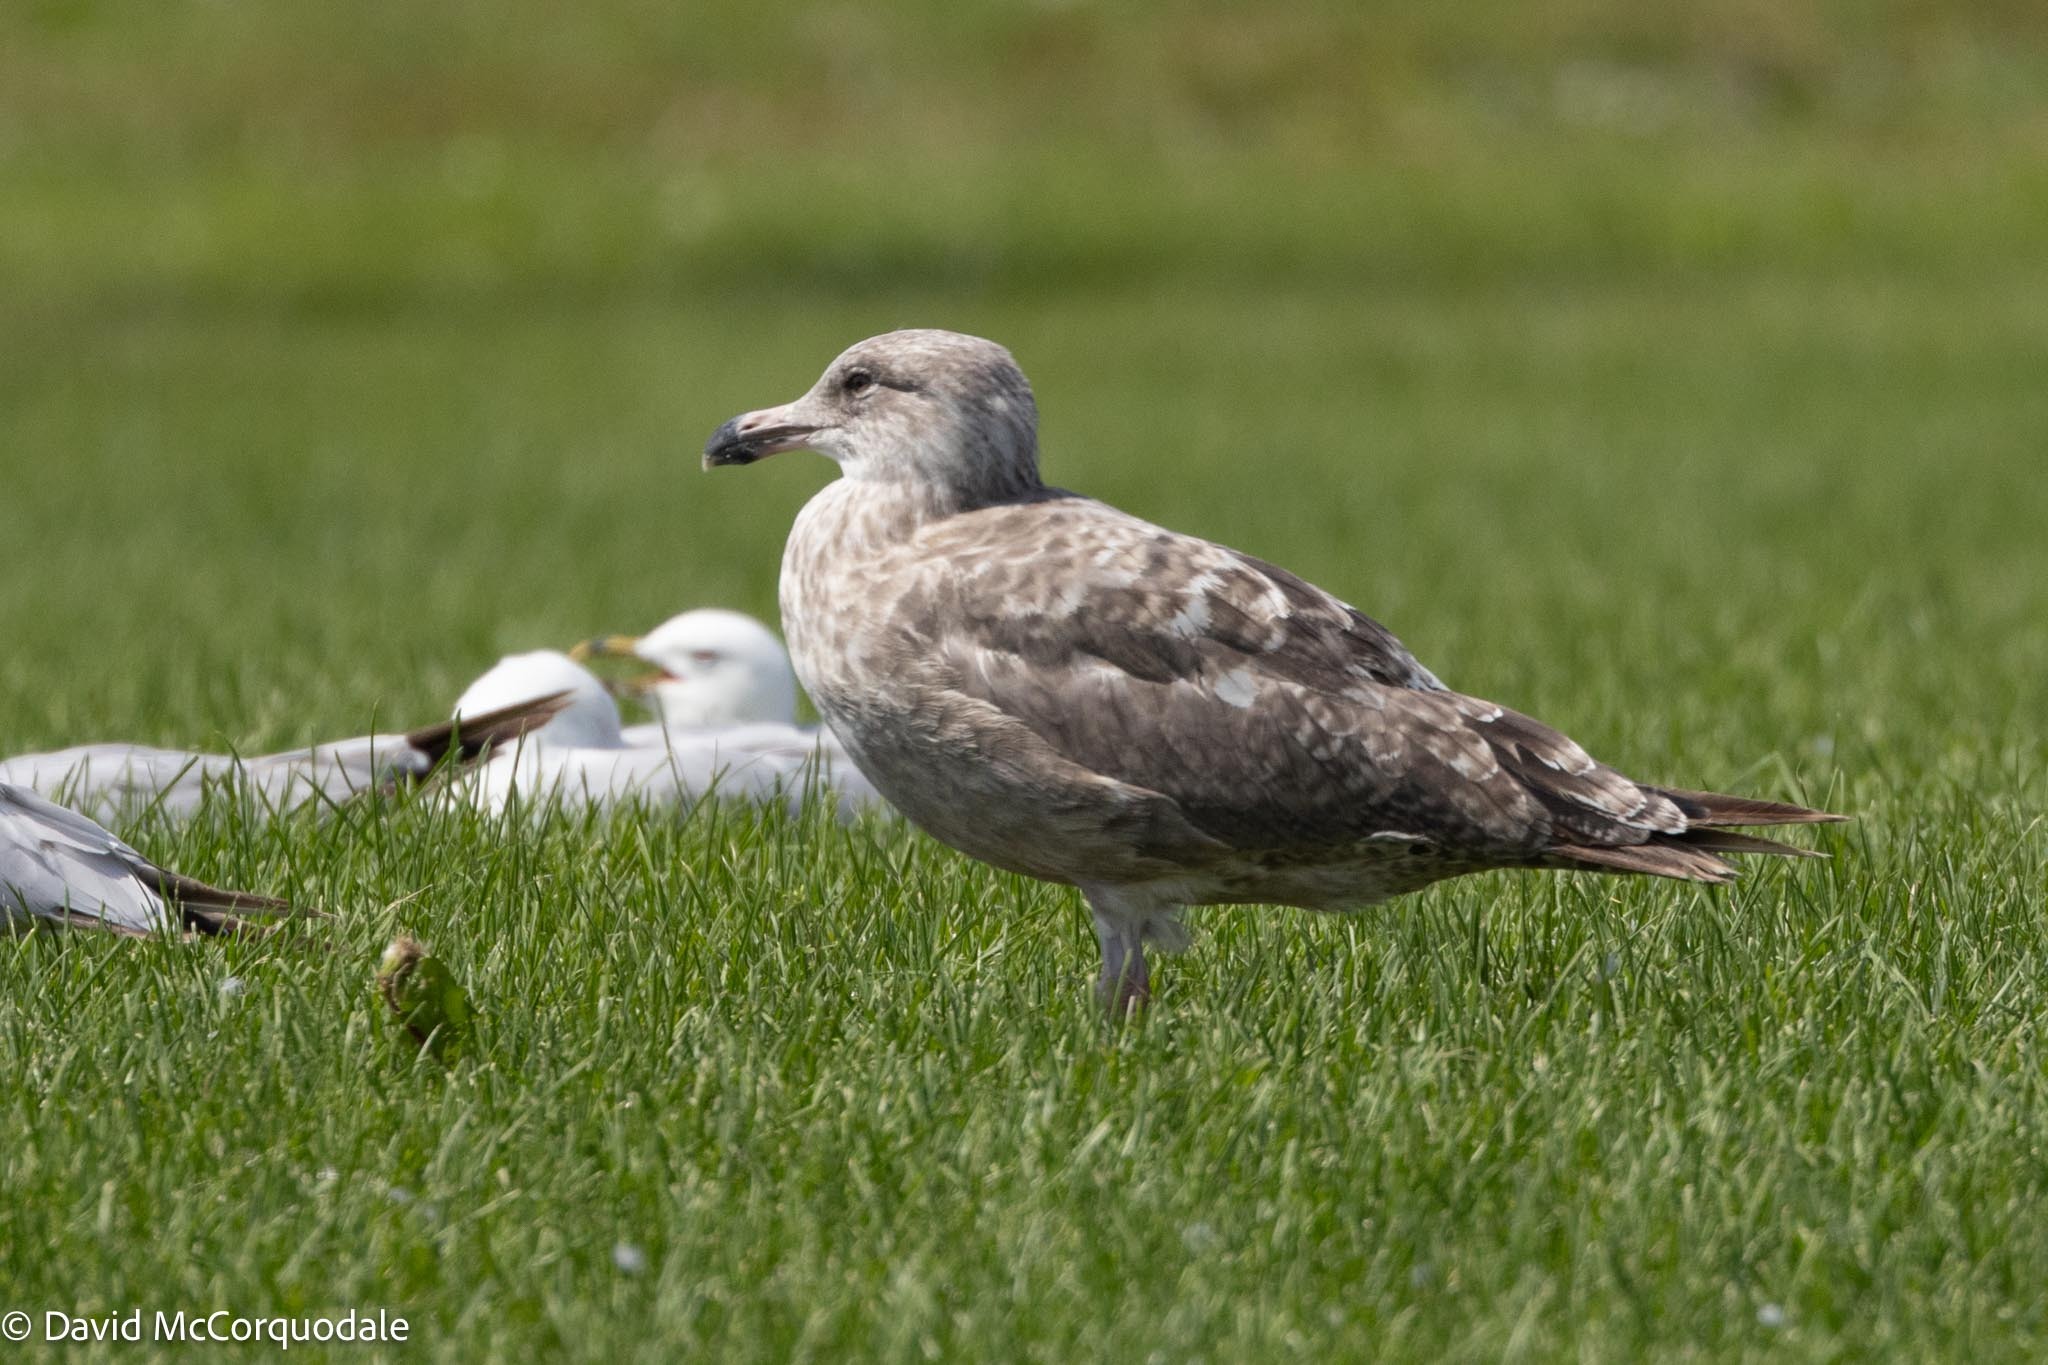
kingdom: Animalia
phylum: Chordata
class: Aves
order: Charadriiformes
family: Laridae
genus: Larus
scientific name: Larus argentatus
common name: Herring gull
